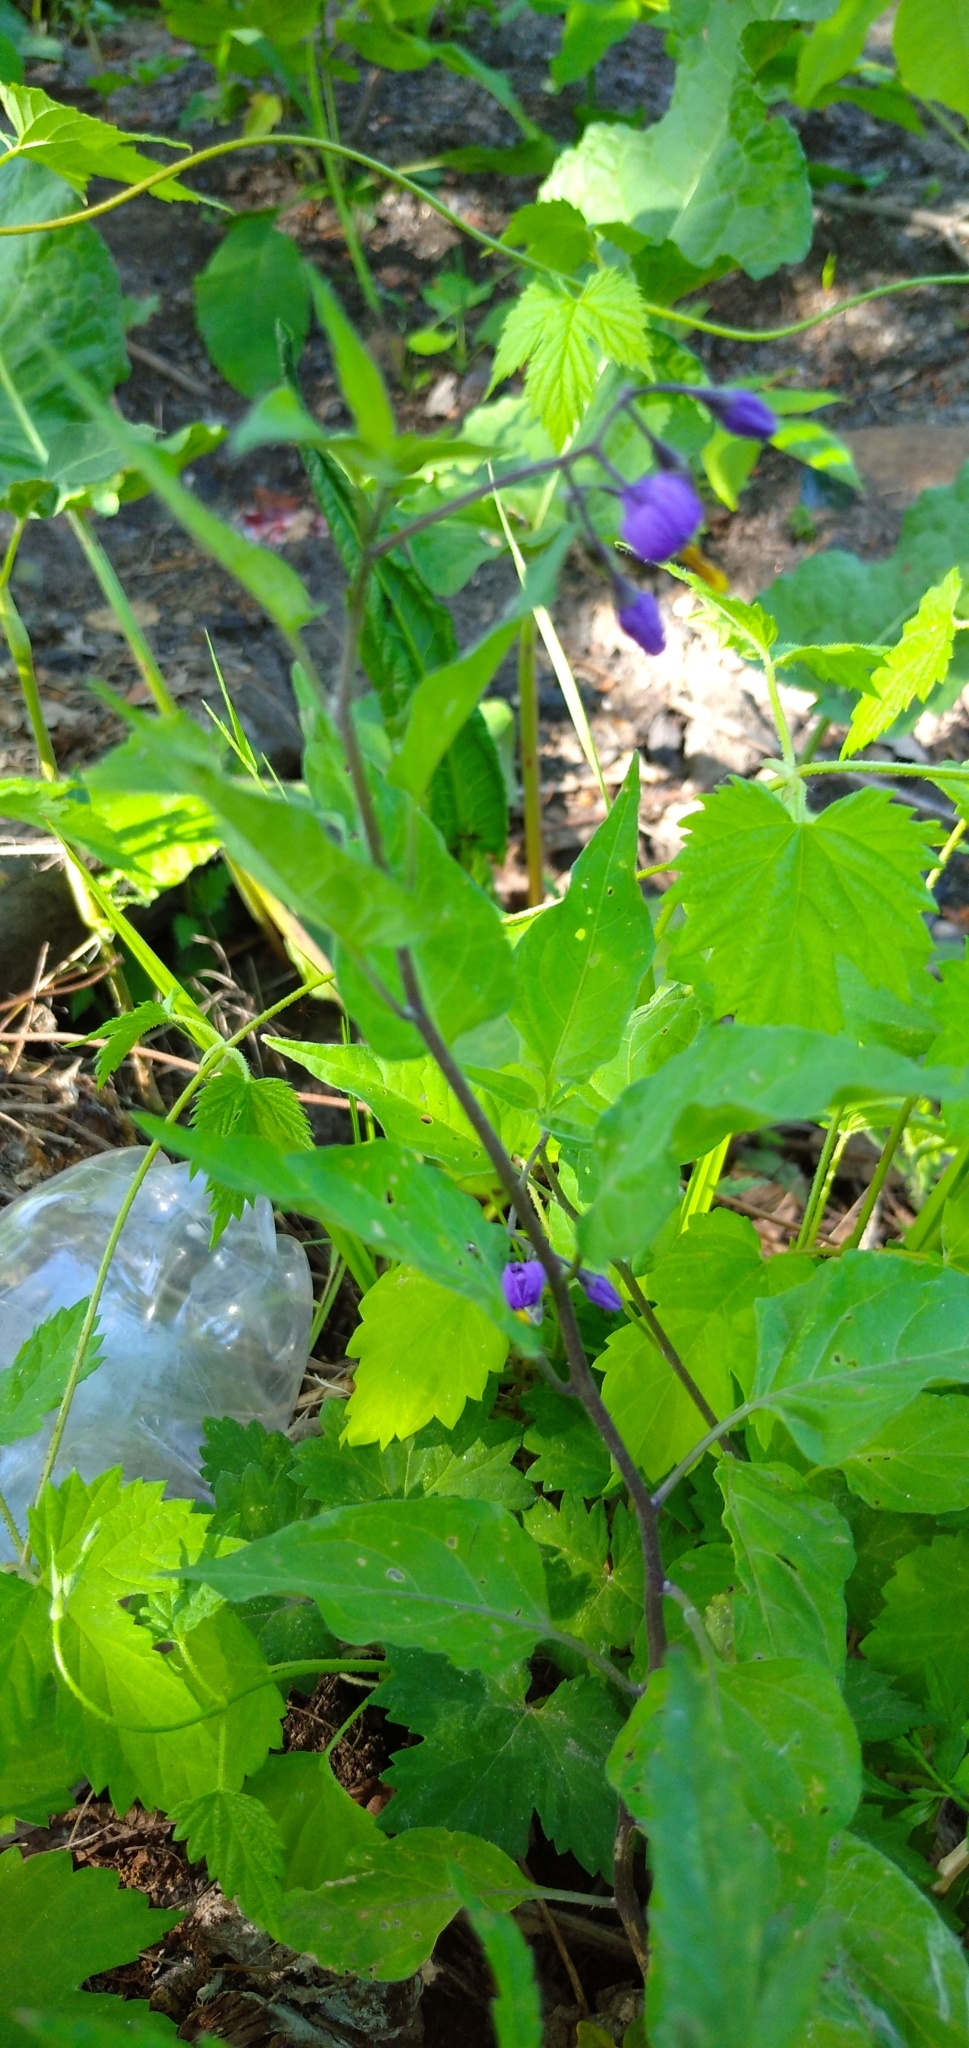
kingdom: Plantae
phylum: Tracheophyta
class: Magnoliopsida
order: Solanales
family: Solanaceae
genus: Solanum
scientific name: Solanum dulcamara
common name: Climbing nightshade
